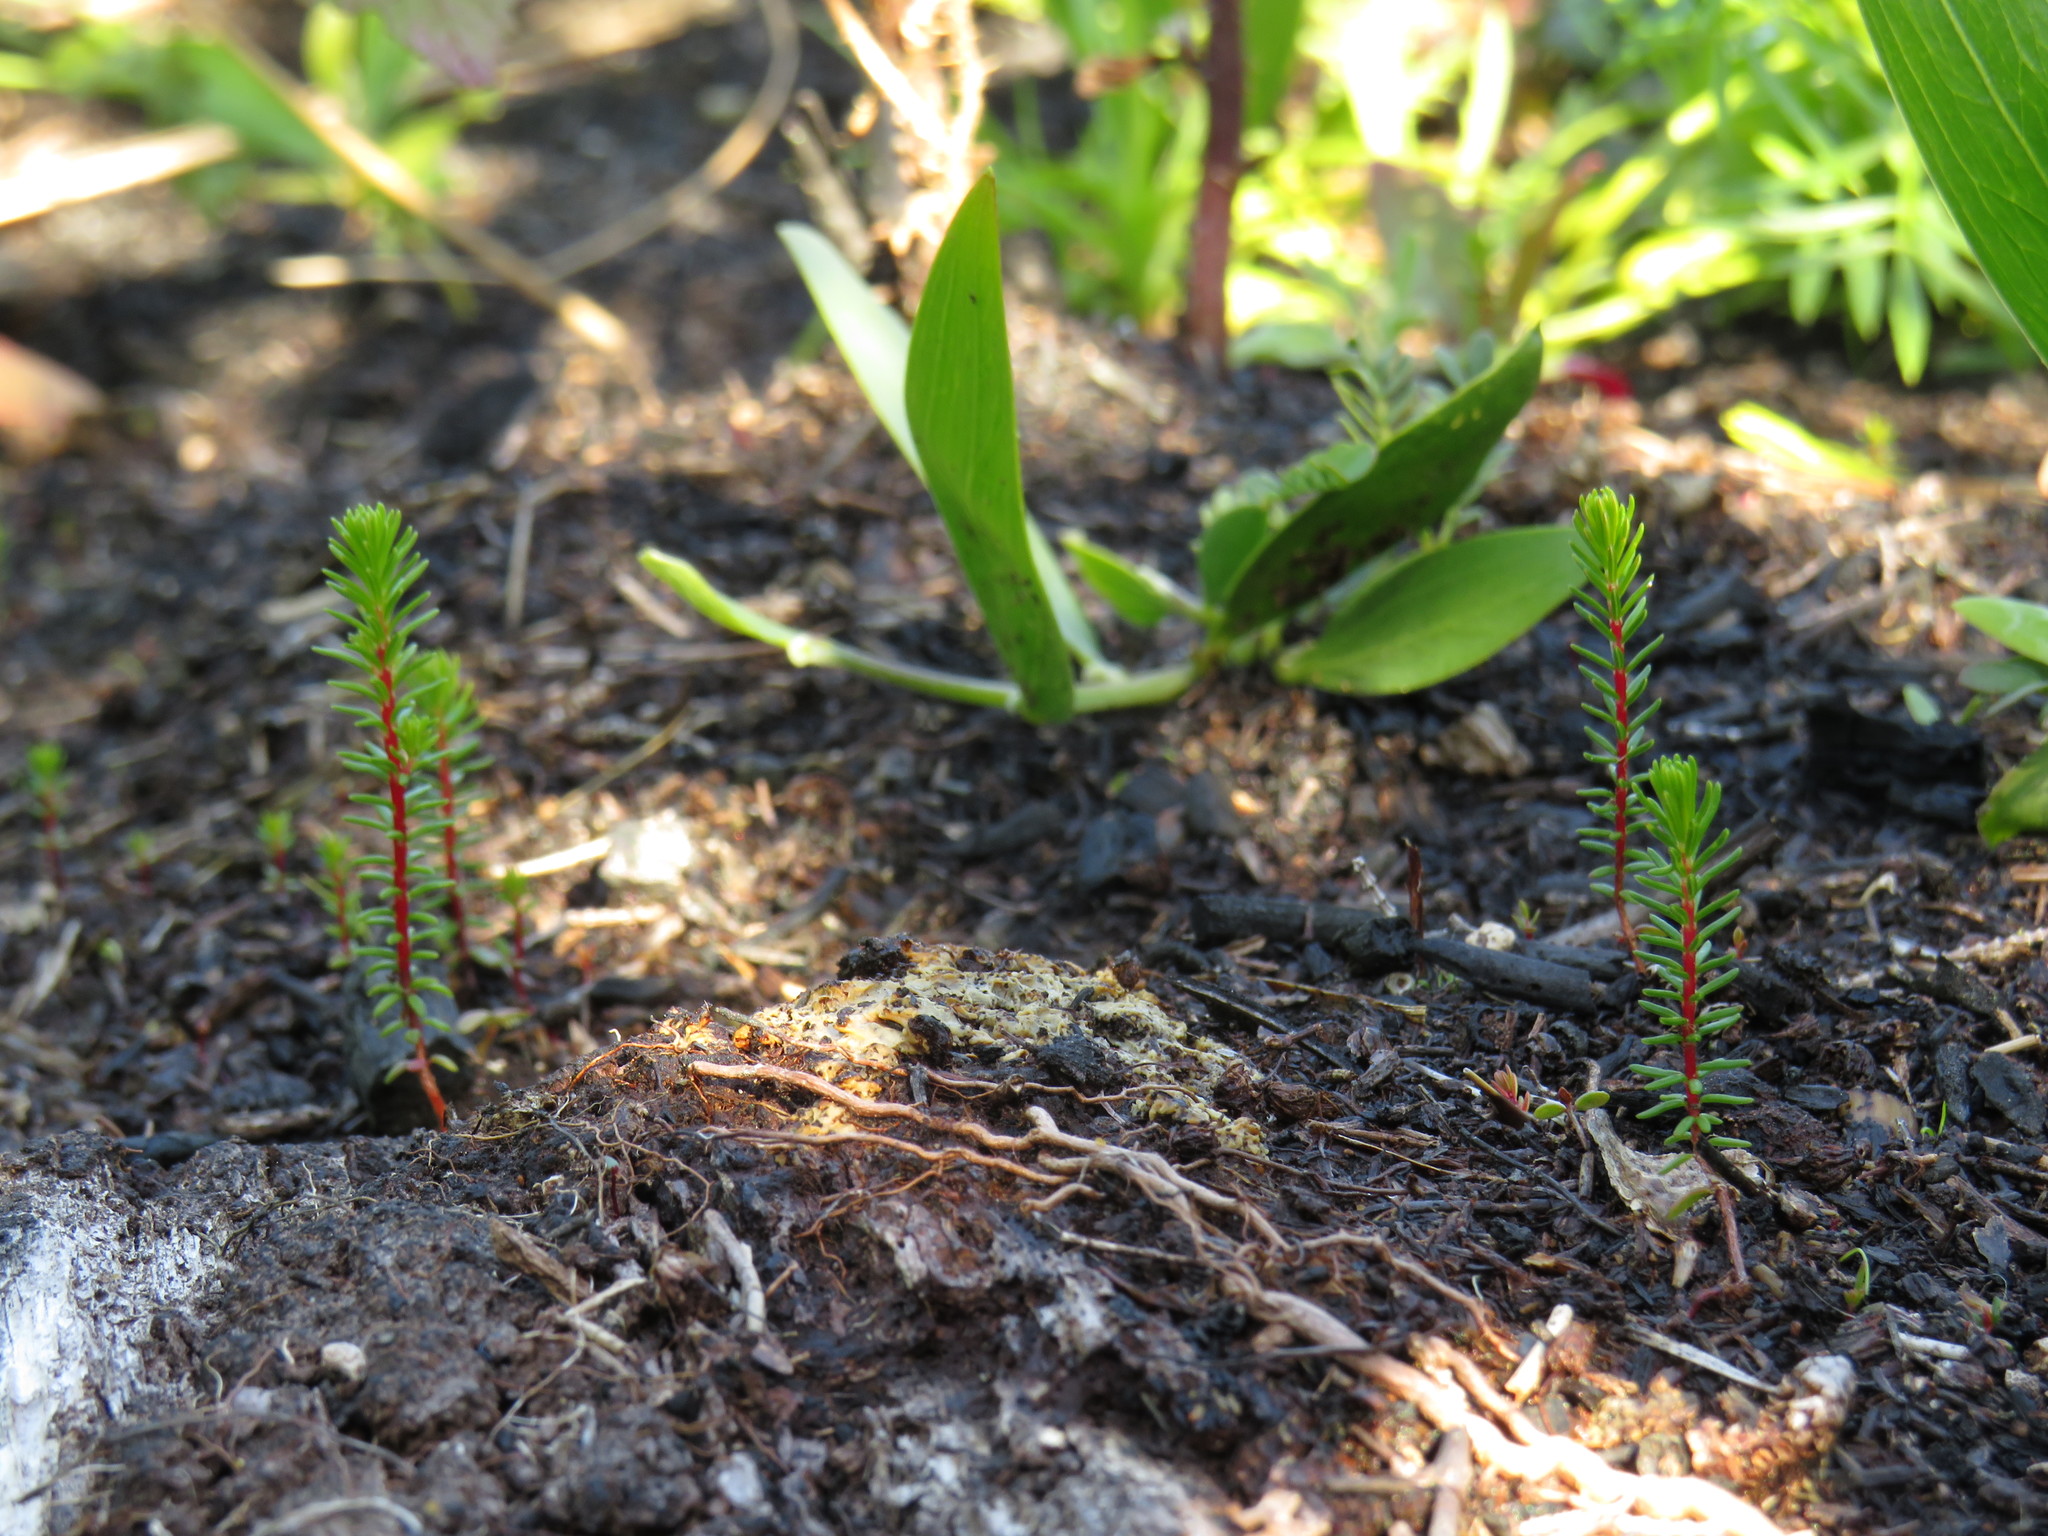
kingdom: Plantae
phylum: Tracheophyta
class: Magnoliopsida
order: Ericales
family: Ericaceae
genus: Erica
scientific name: Erica verticillata
